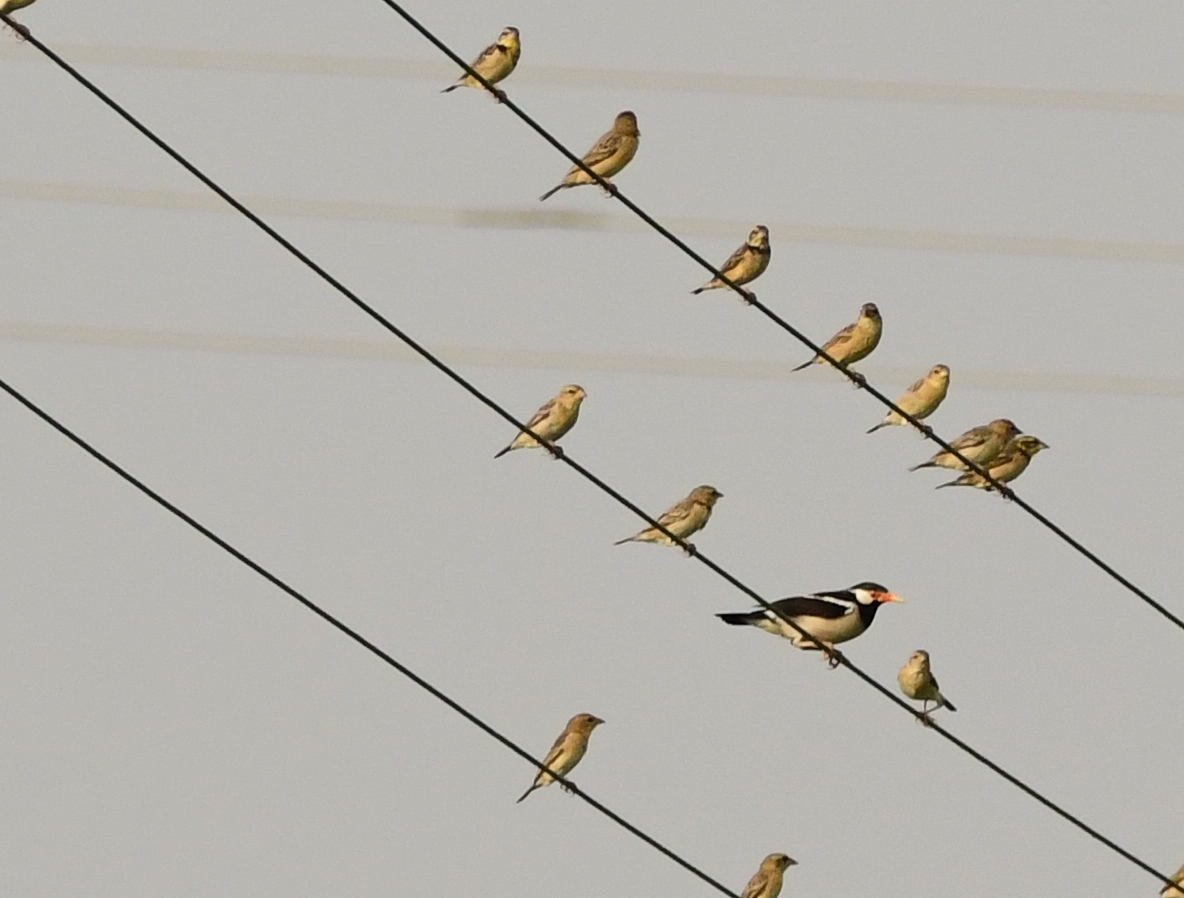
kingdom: Animalia
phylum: Chordata
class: Aves
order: Passeriformes
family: Sturnidae
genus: Gracupica
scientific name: Gracupica contra
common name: Pied myna
